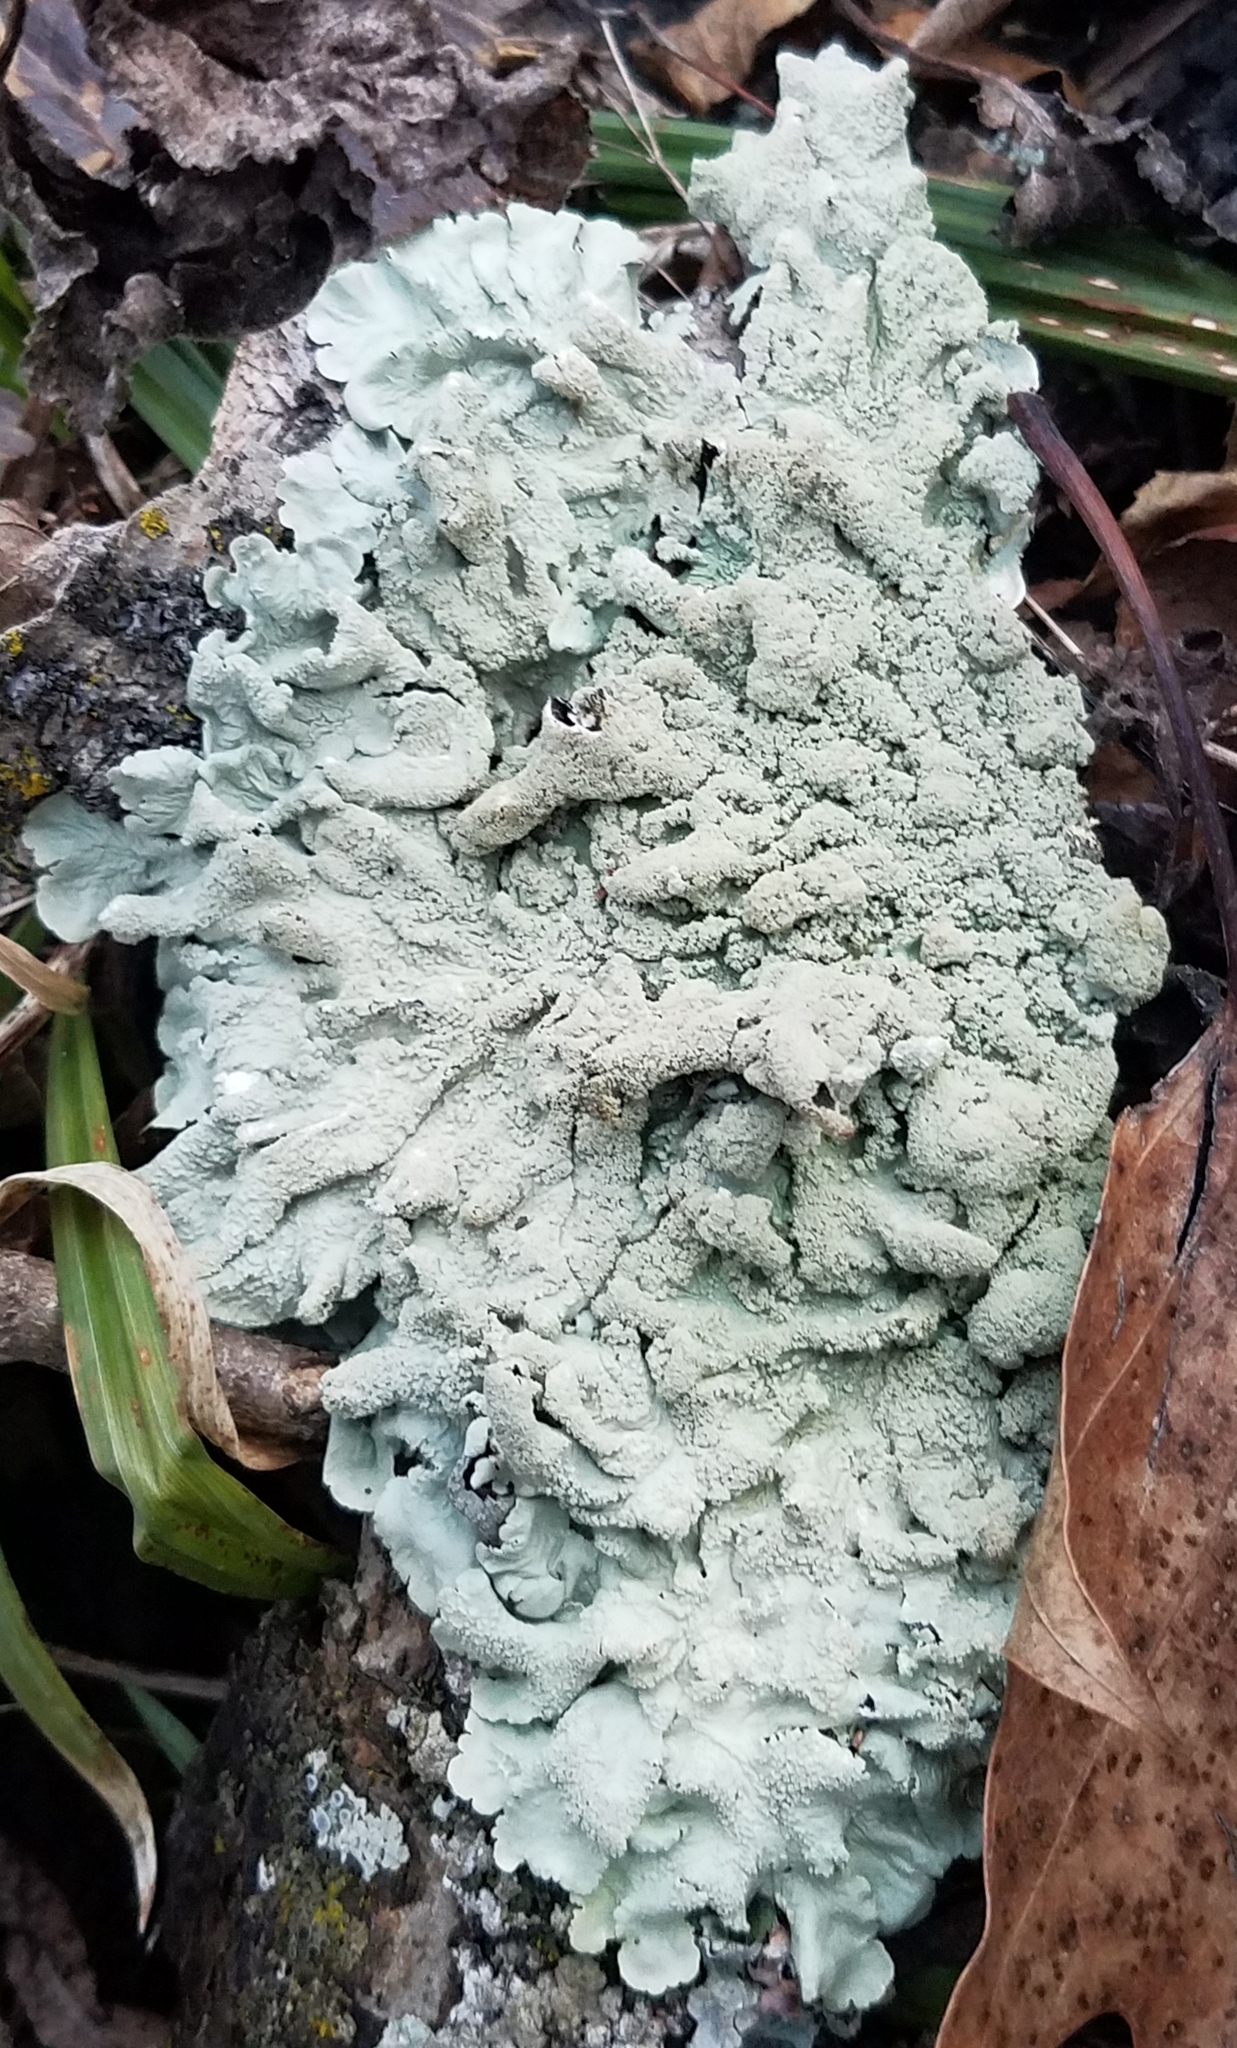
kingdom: Fungi
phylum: Ascomycota
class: Lecanoromycetes
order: Lecanorales
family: Parmeliaceae
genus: Flavoparmelia
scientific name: Flavoparmelia caperata
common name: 40-mile per hour lichen
